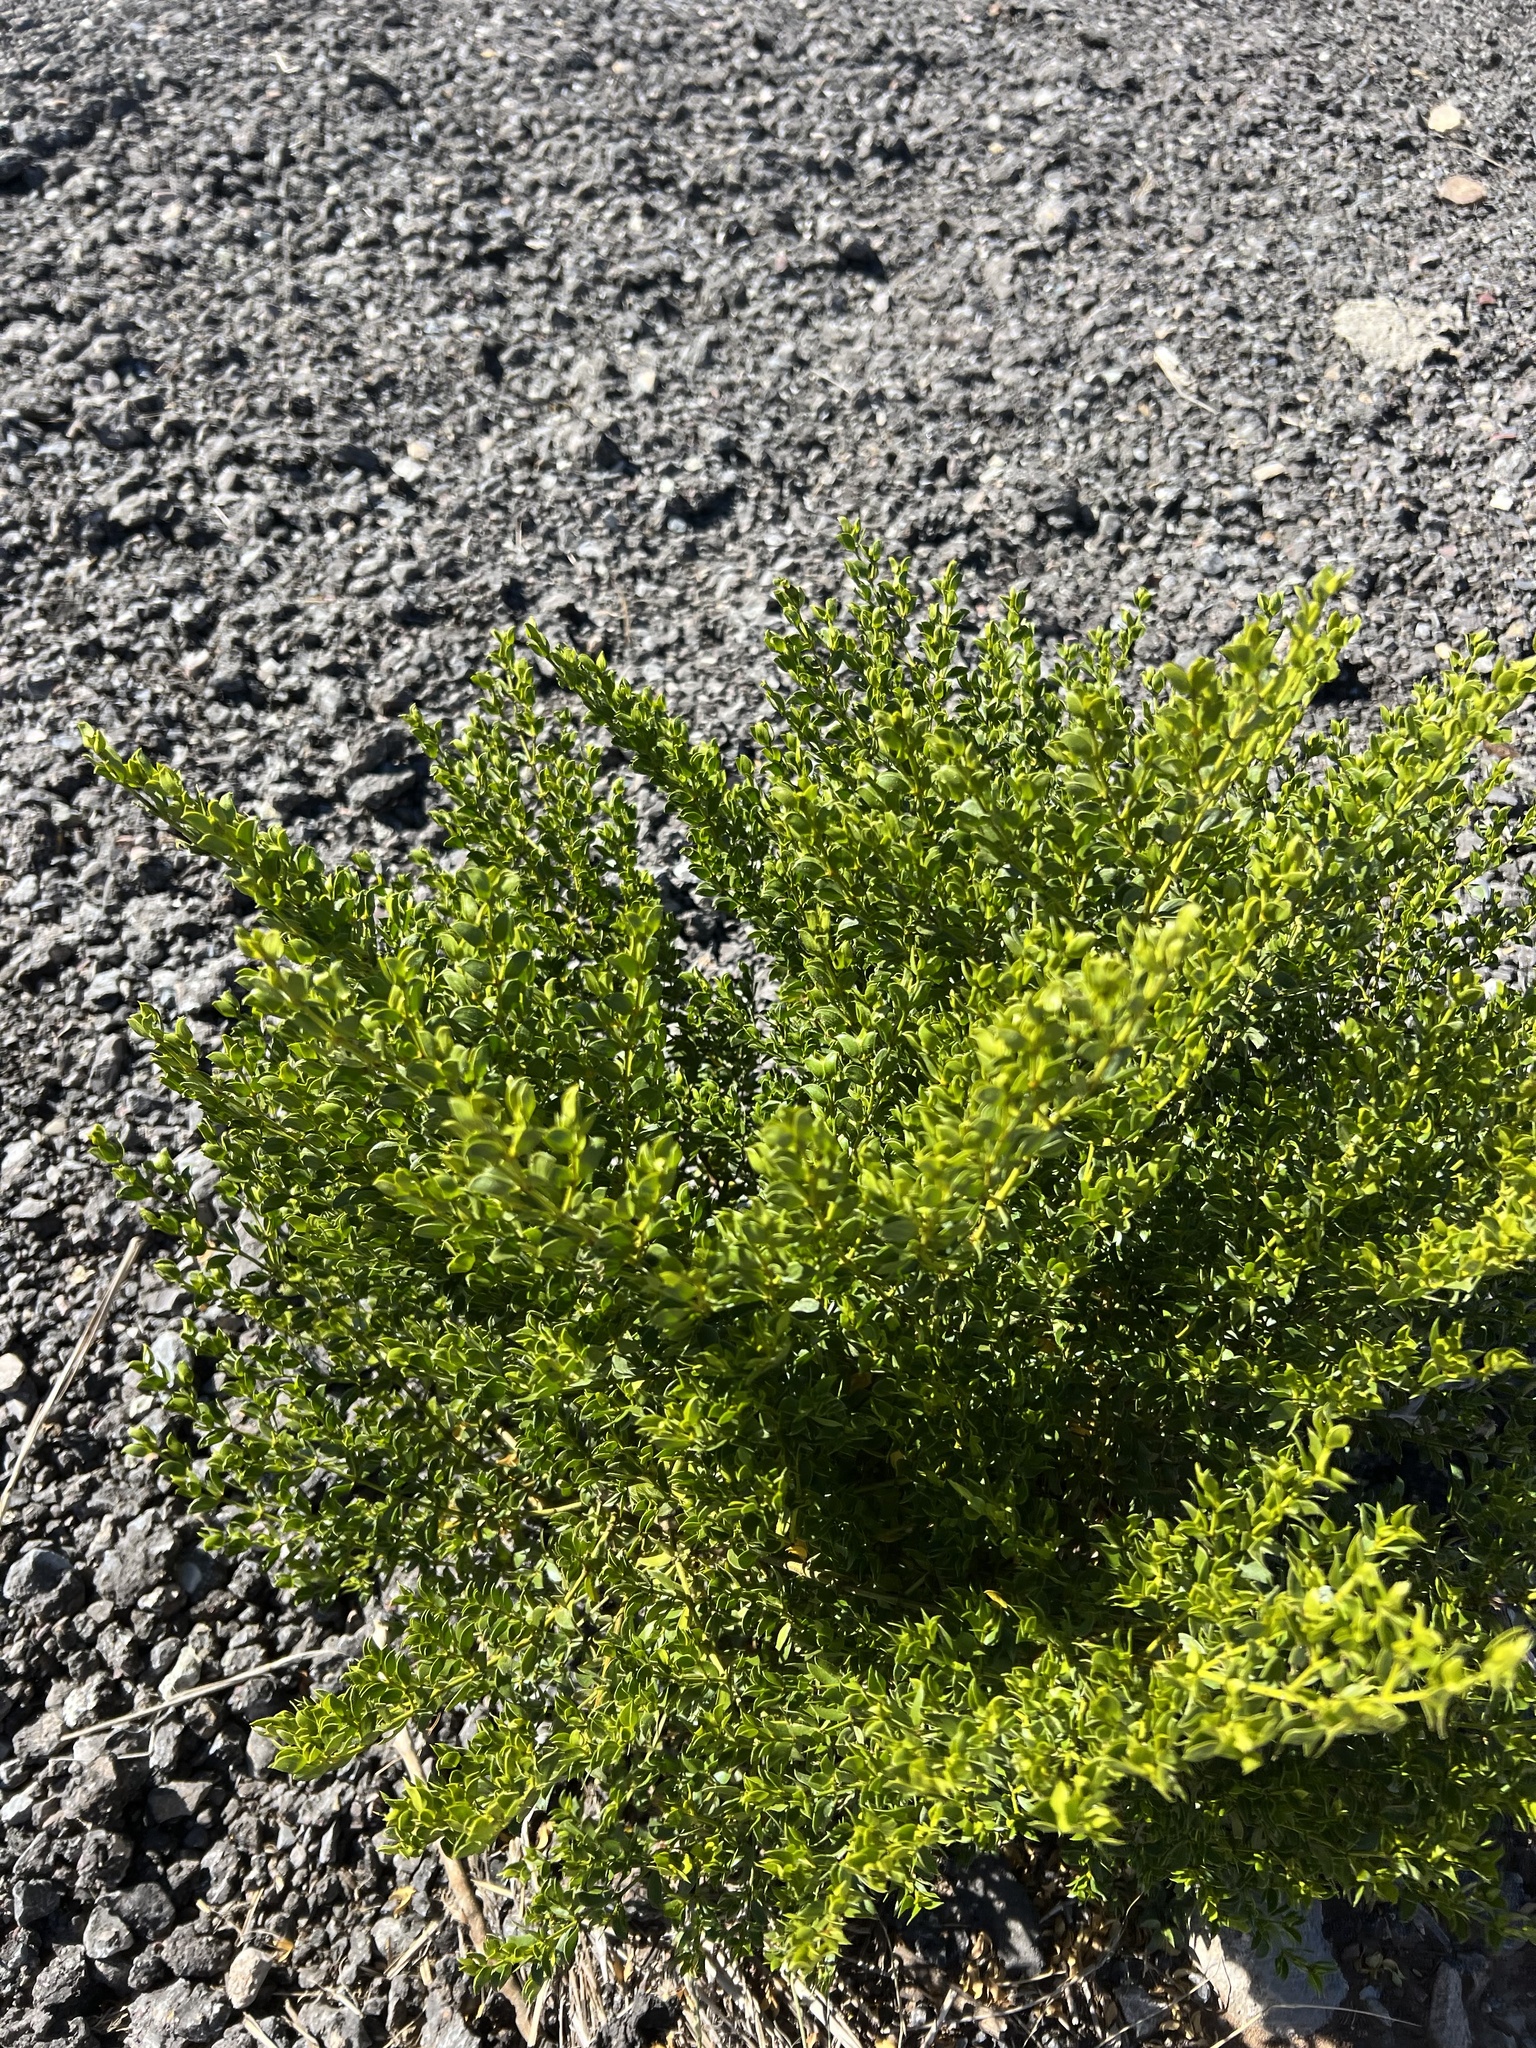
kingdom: Plantae
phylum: Tracheophyta
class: Magnoliopsida
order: Zygophyllales
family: Zygophyllaceae
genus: Larrea
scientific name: Larrea tridentata
